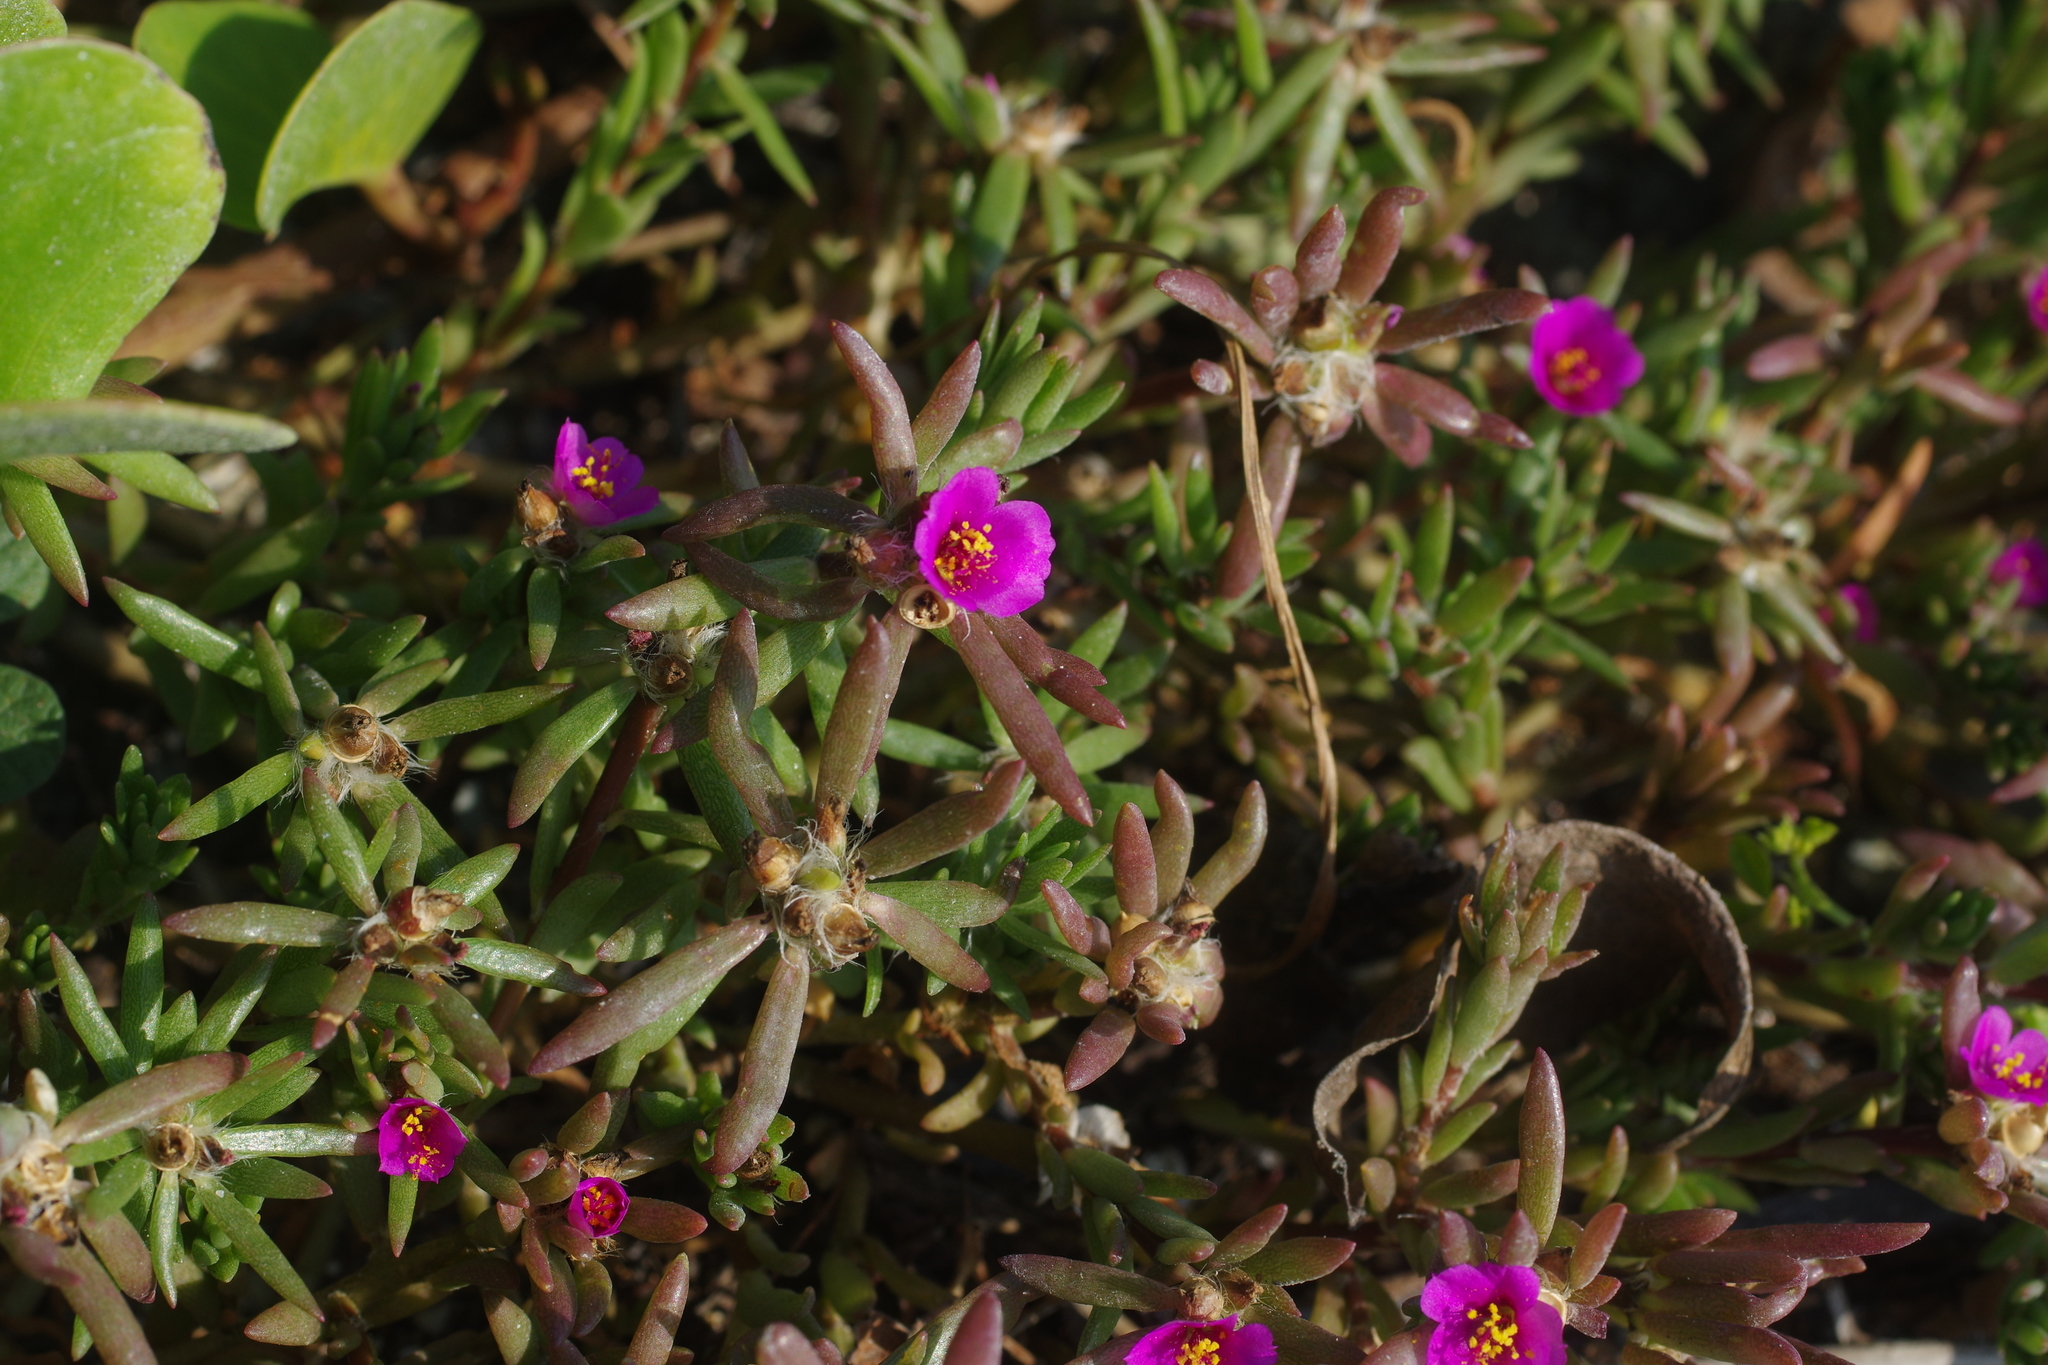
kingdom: Plantae
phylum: Tracheophyta
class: Magnoliopsida
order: Caryophyllales
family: Portulacaceae
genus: Portulaca
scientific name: Portulaca pilosa
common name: Kiss me quick
